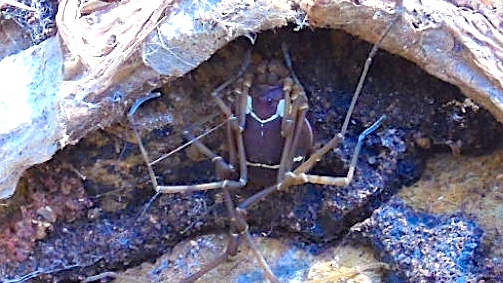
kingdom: Animalia
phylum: Arthropoda
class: Arachnida
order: Opiliones
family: Cosmetidae
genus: Paravonones
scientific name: Paravonones
